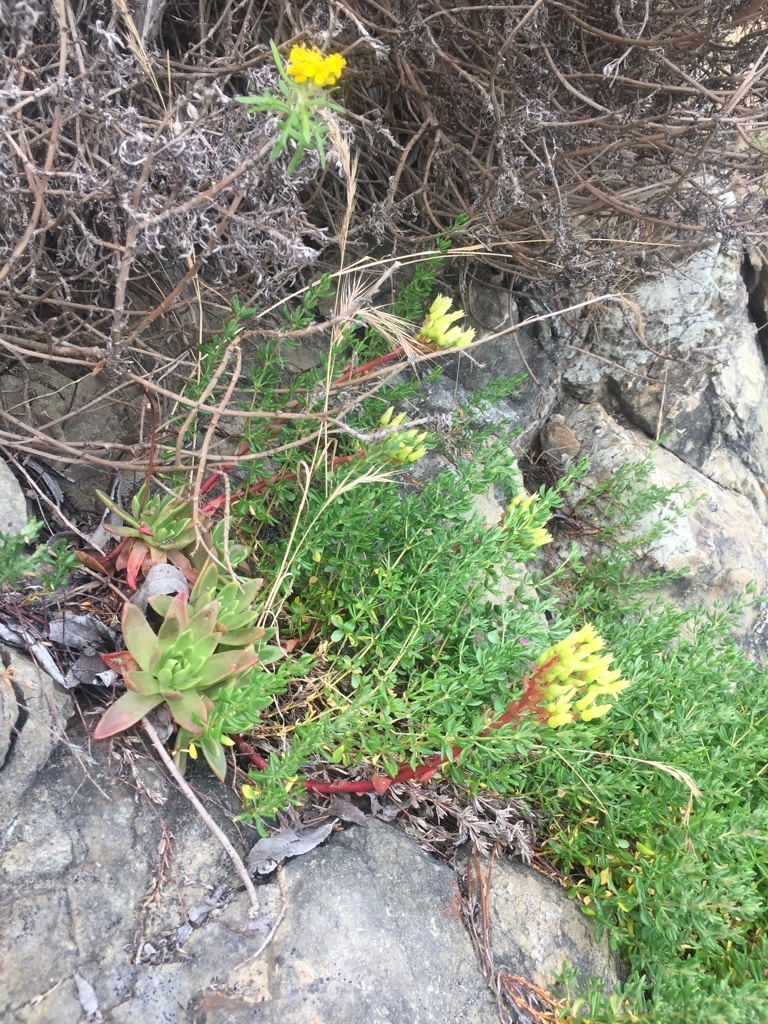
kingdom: Plantae
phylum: Tracheophyta
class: Magnoliopsida
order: Saxifragales
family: Crassulaceae
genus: Dudleya
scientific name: Dudleya farinosa
